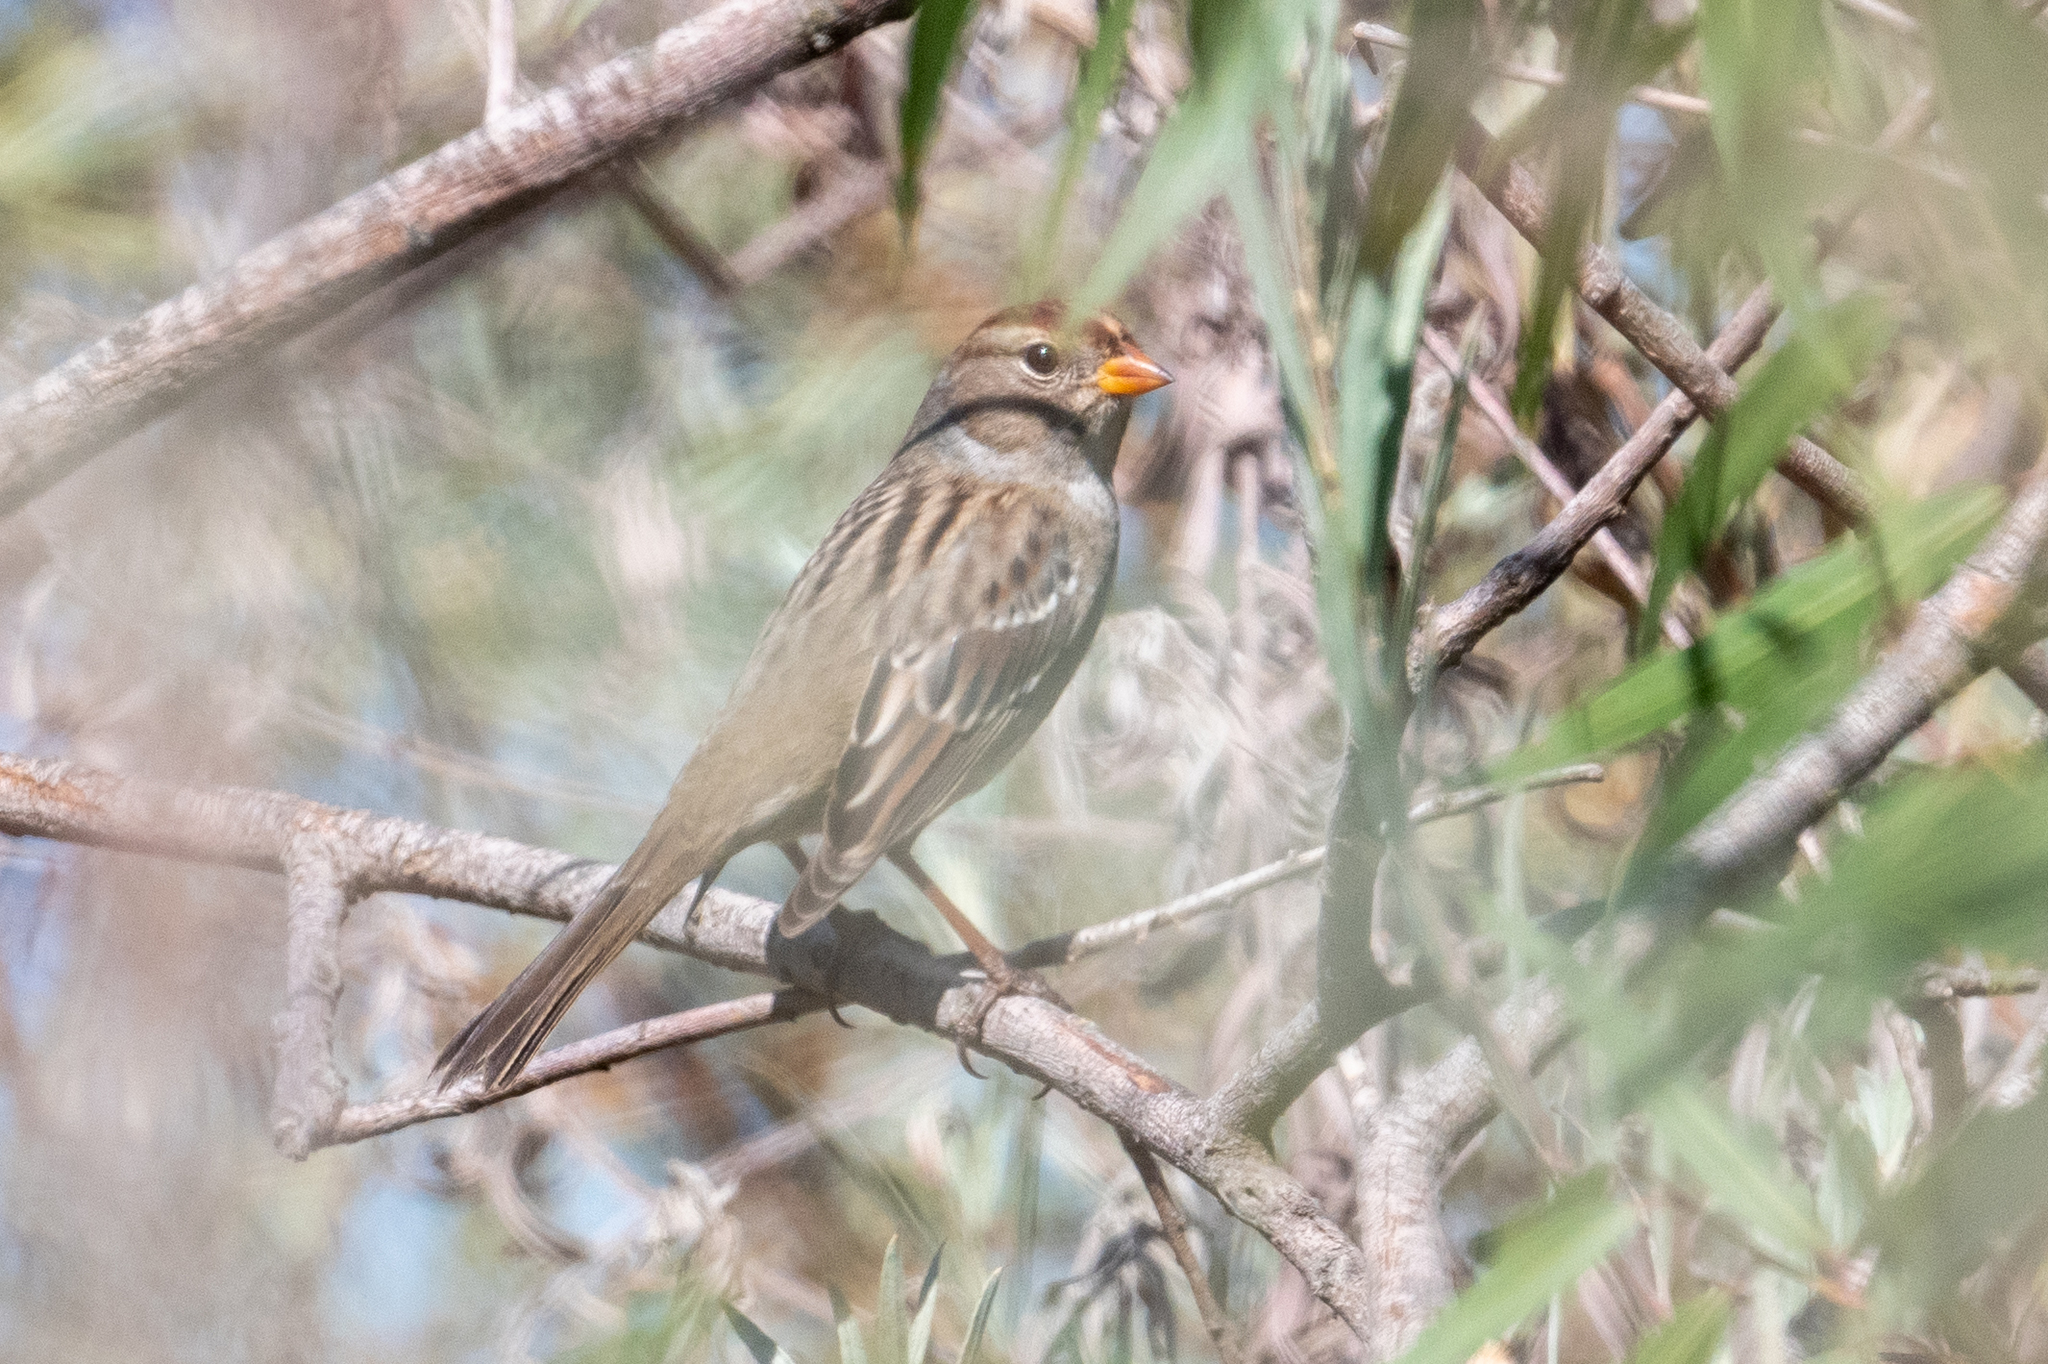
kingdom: Animalia
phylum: Chordata
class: Aves
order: Passeriformes
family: Passerellidae
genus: Zonotrichia
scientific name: Zonotrichia leucophrys
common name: White-crowned sparrow
